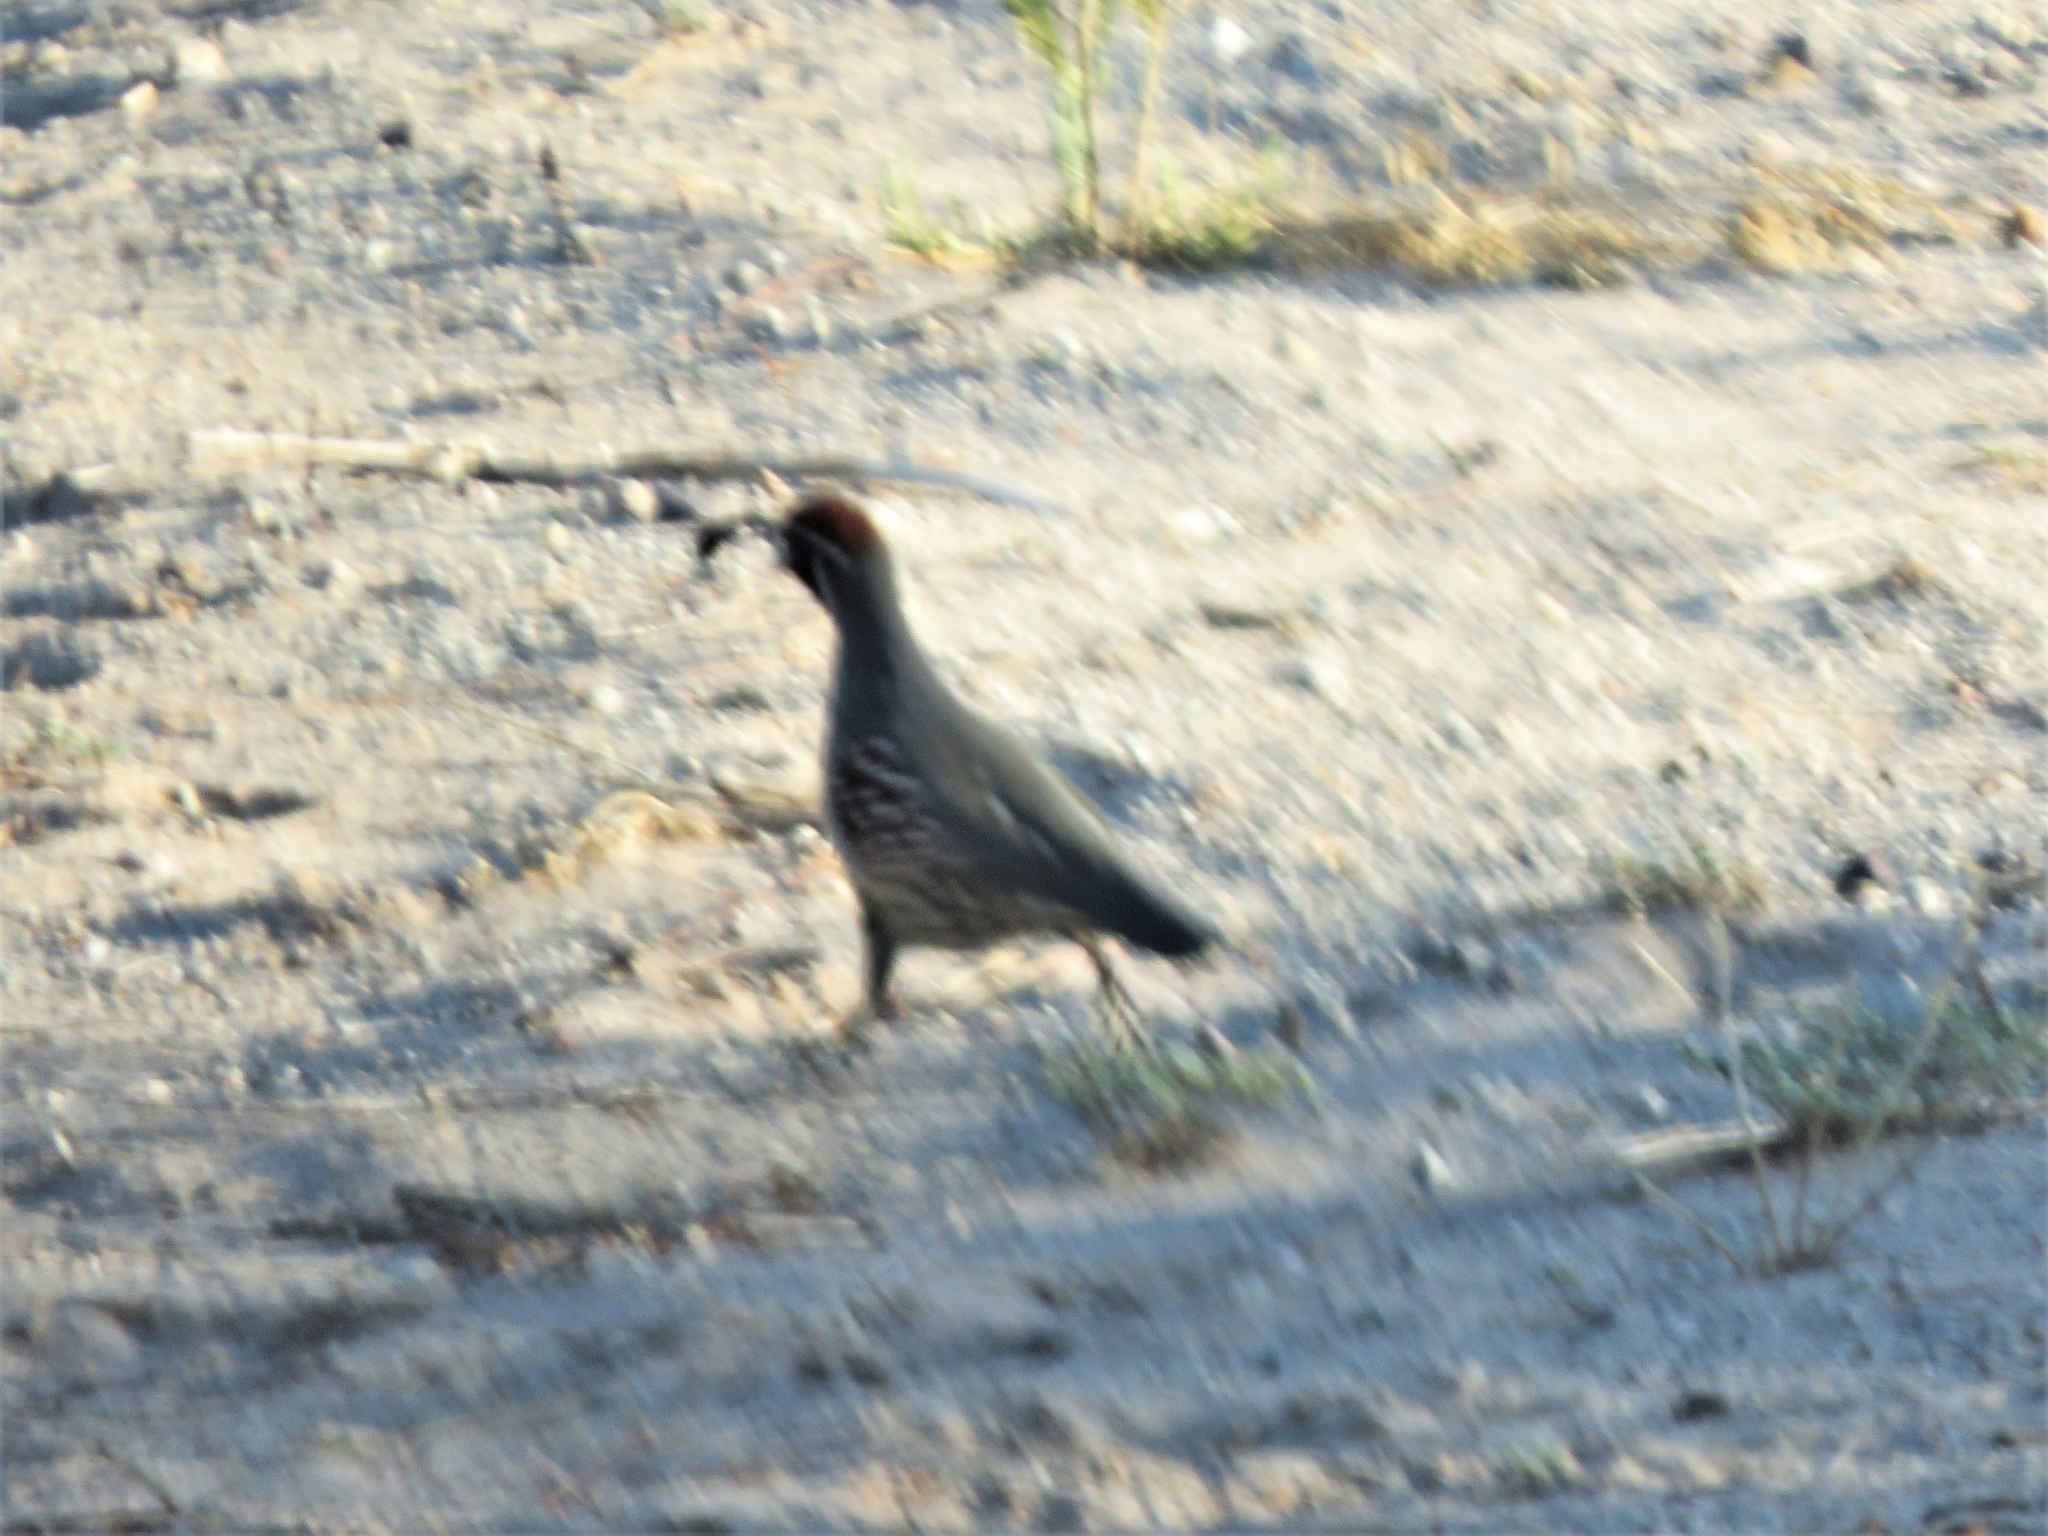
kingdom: Animalia
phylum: Chordata
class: Aves
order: Galliformes
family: Odontophoridae
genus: Callipepla
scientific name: Callipepla gambelii
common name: Gambel's quail
